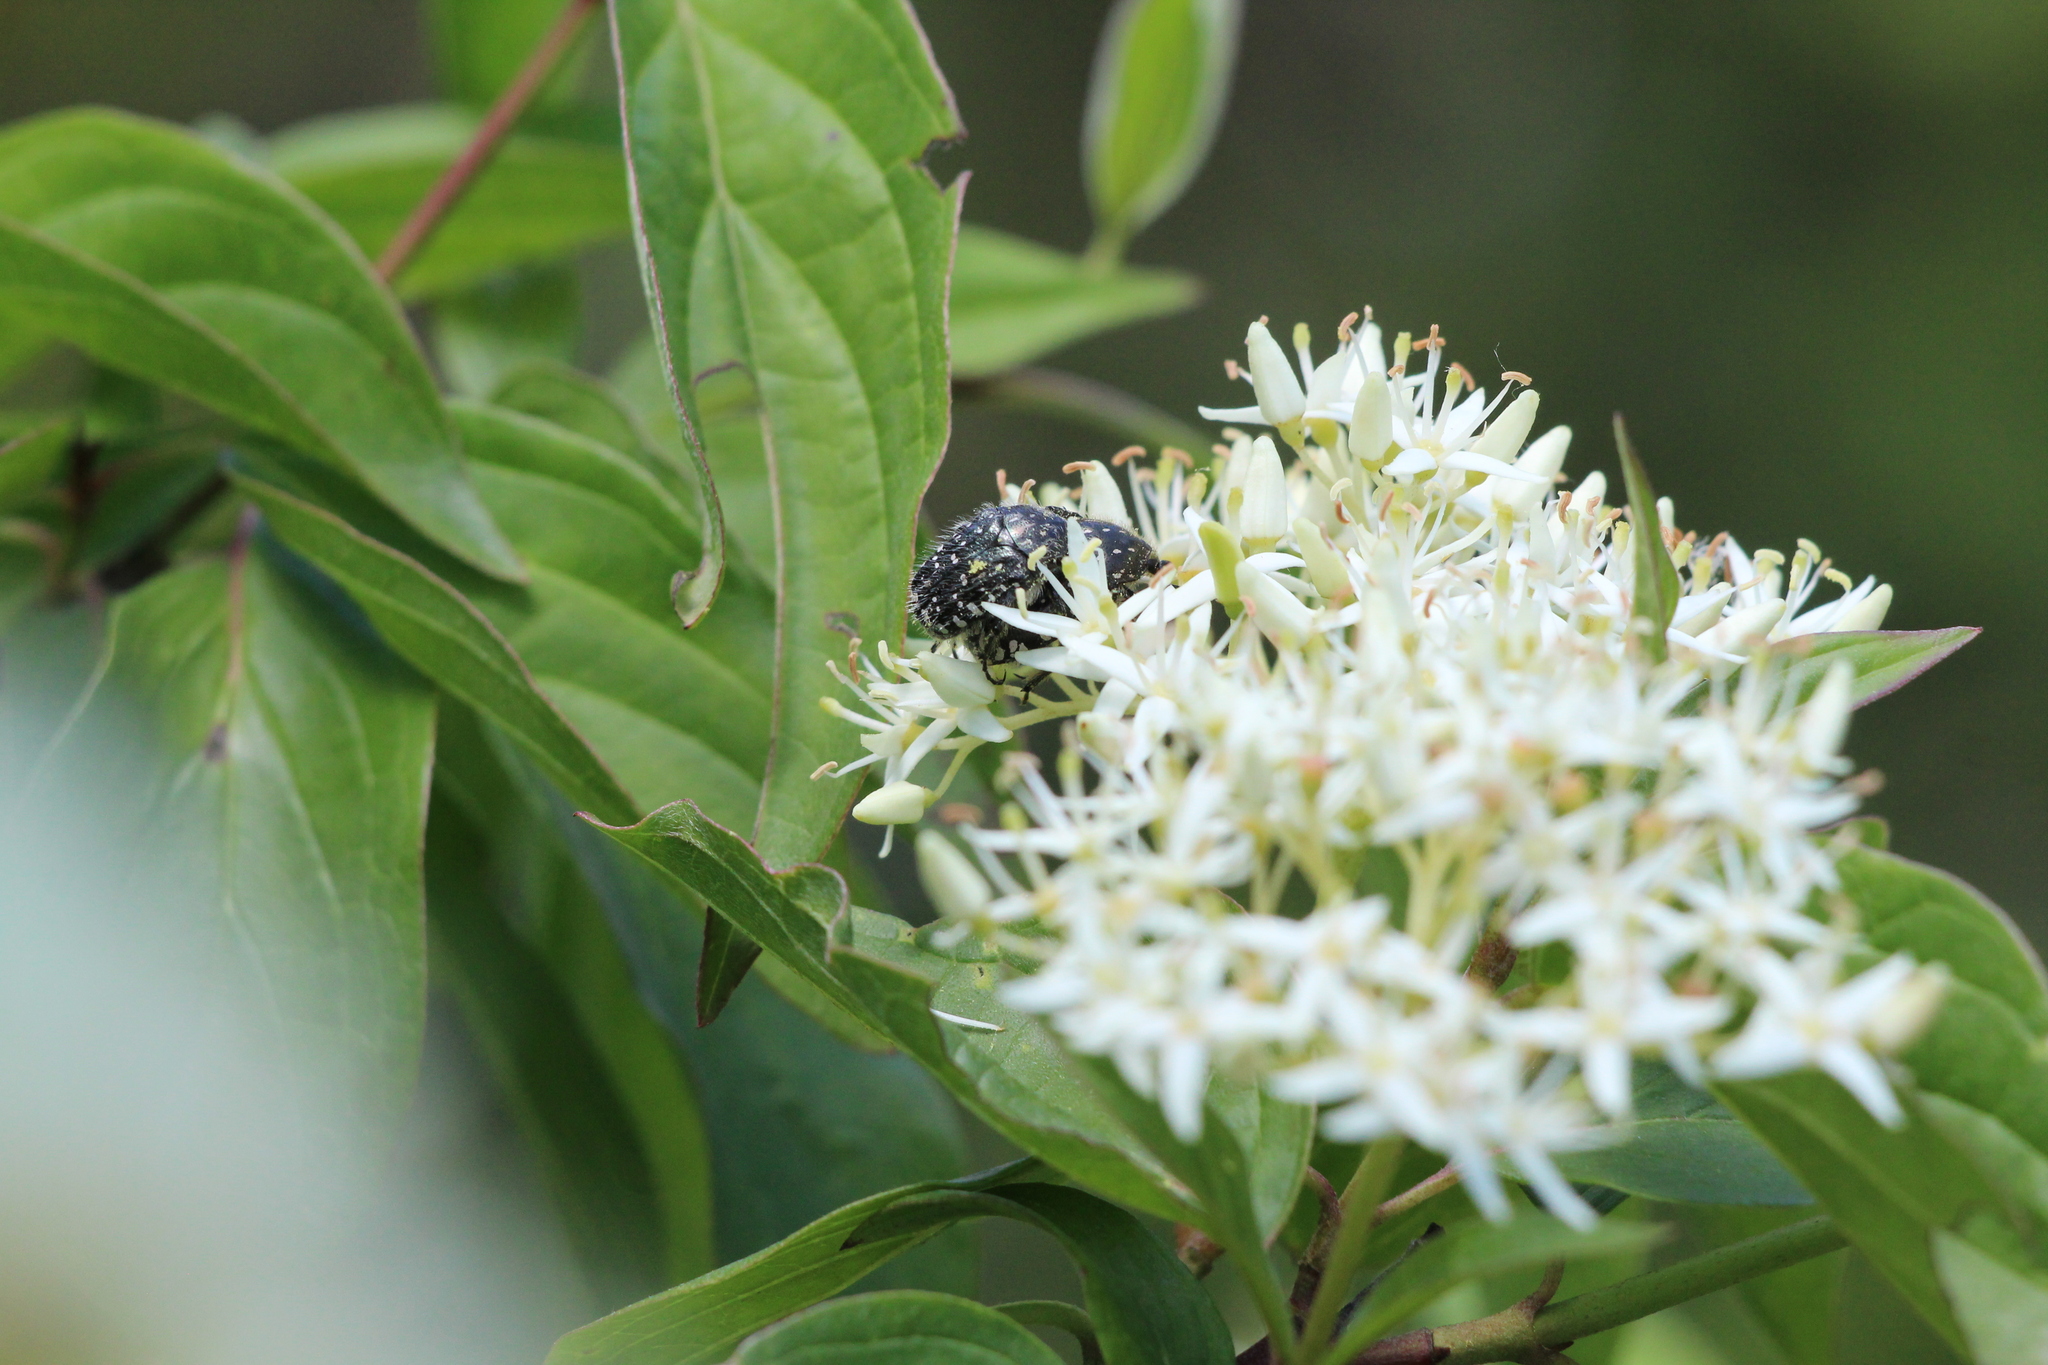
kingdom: Animalia
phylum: Arthropoda
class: Insecta
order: Coleoptera
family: Scarabaeidae
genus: Oxythyrea
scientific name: Oxythyrea funesta
